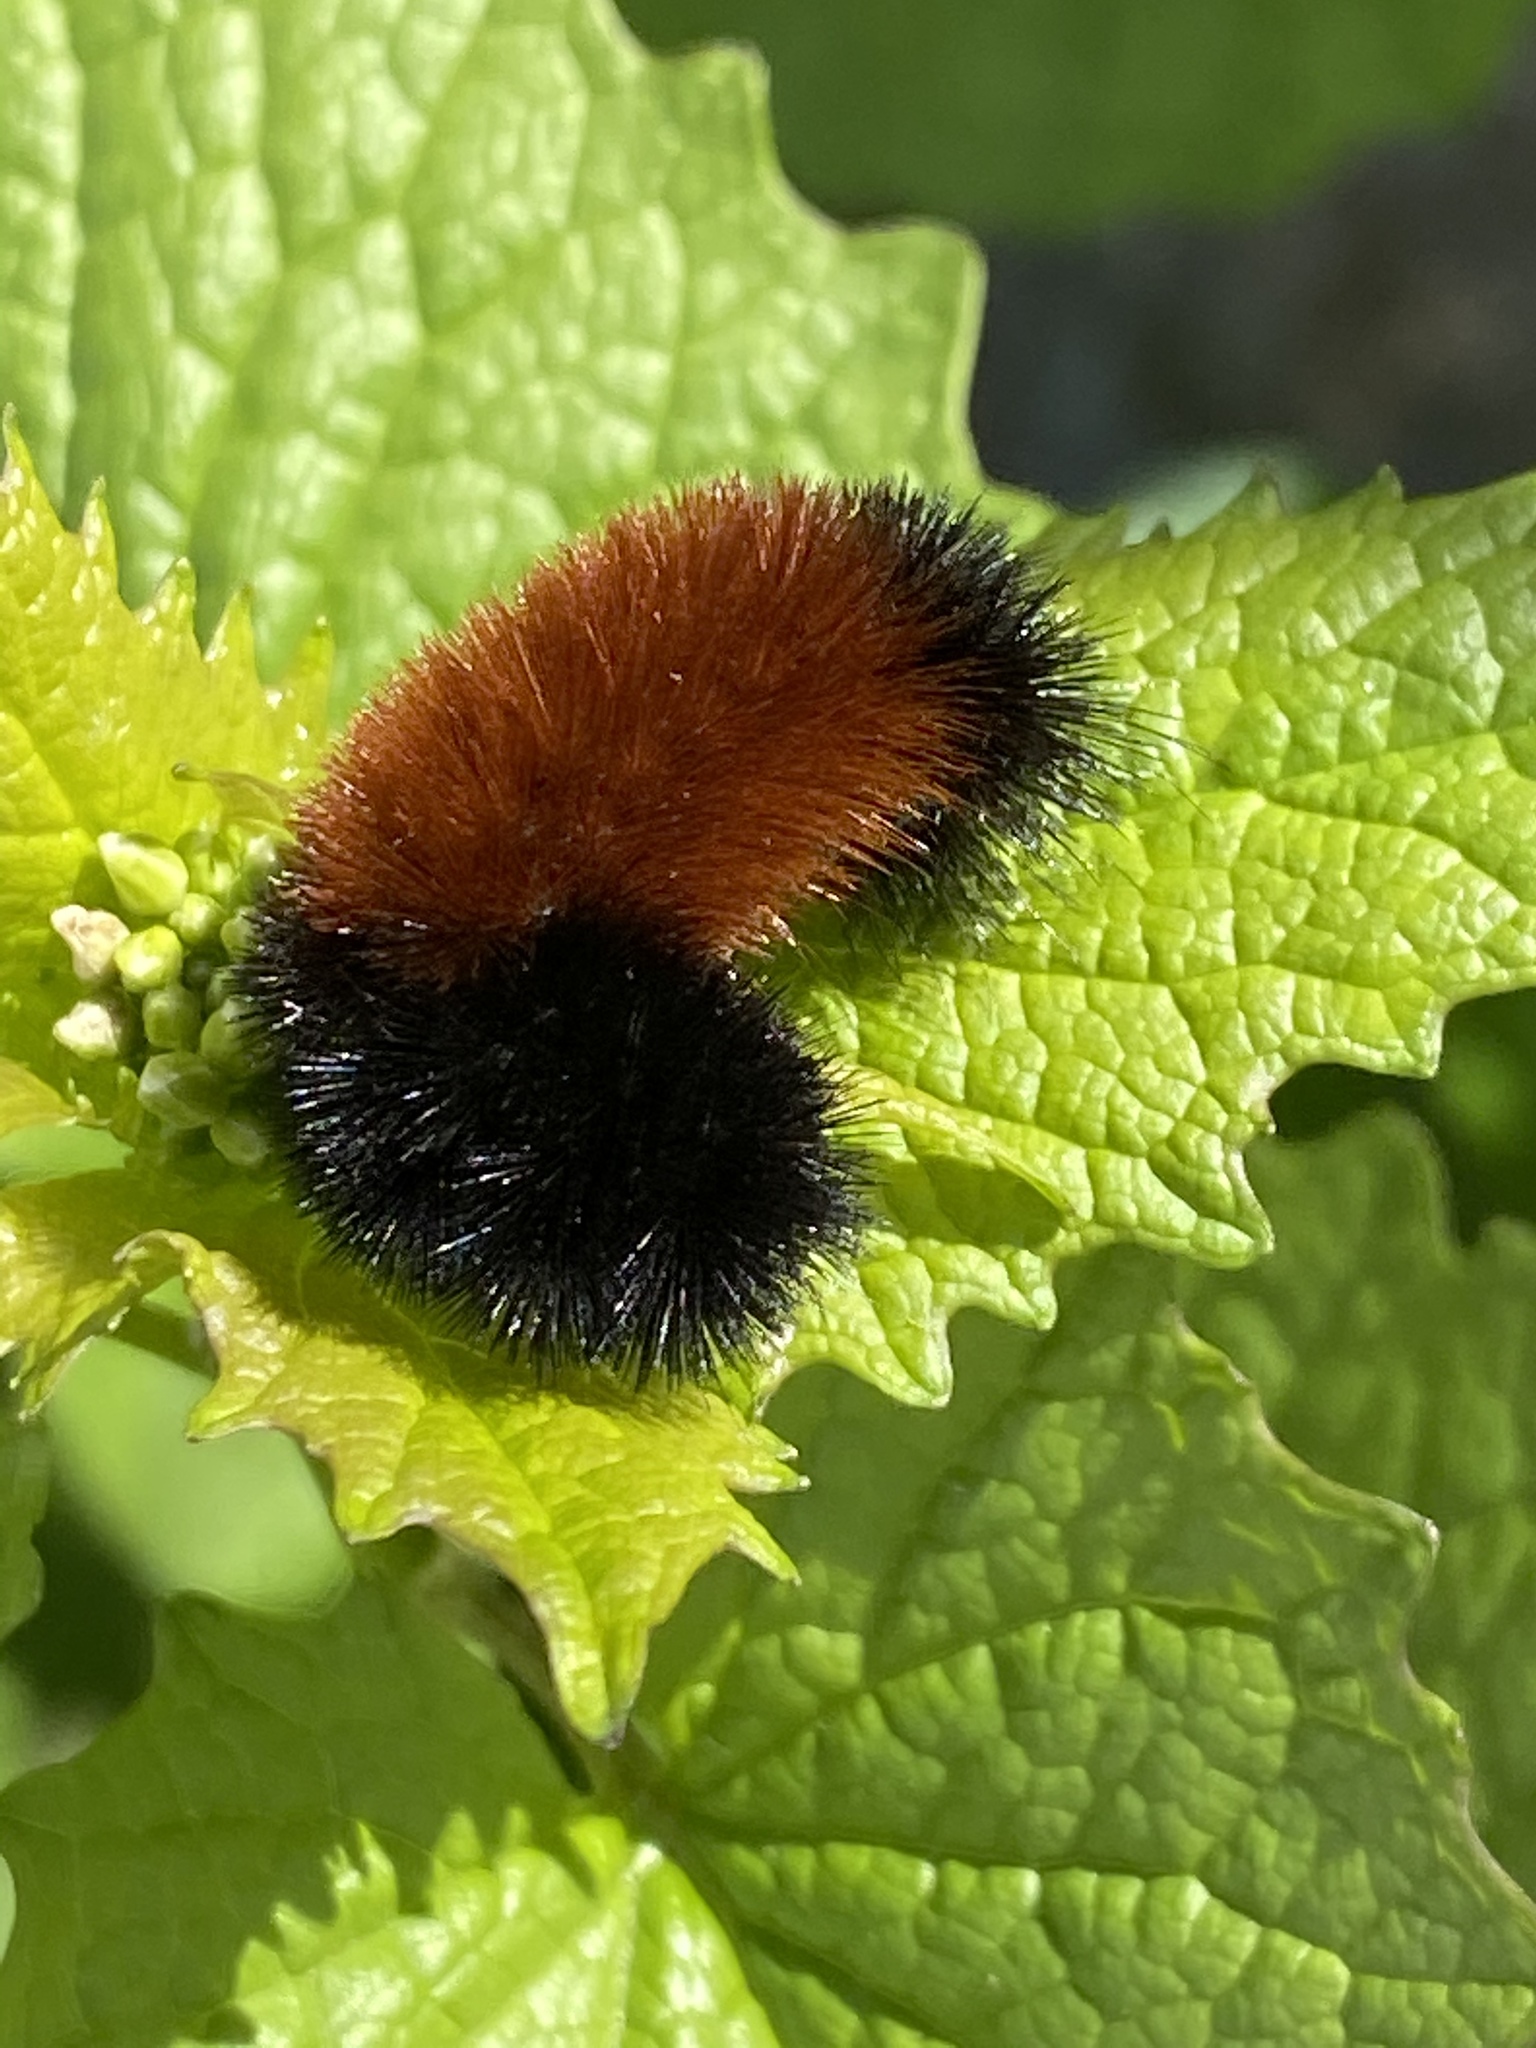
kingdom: Animalia
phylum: Arthropoda
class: Insecta
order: Lepidoptera
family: Erebidae
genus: Pyrrharctia
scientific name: Pyrrharctia isabella
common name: Isabella tiger moth
